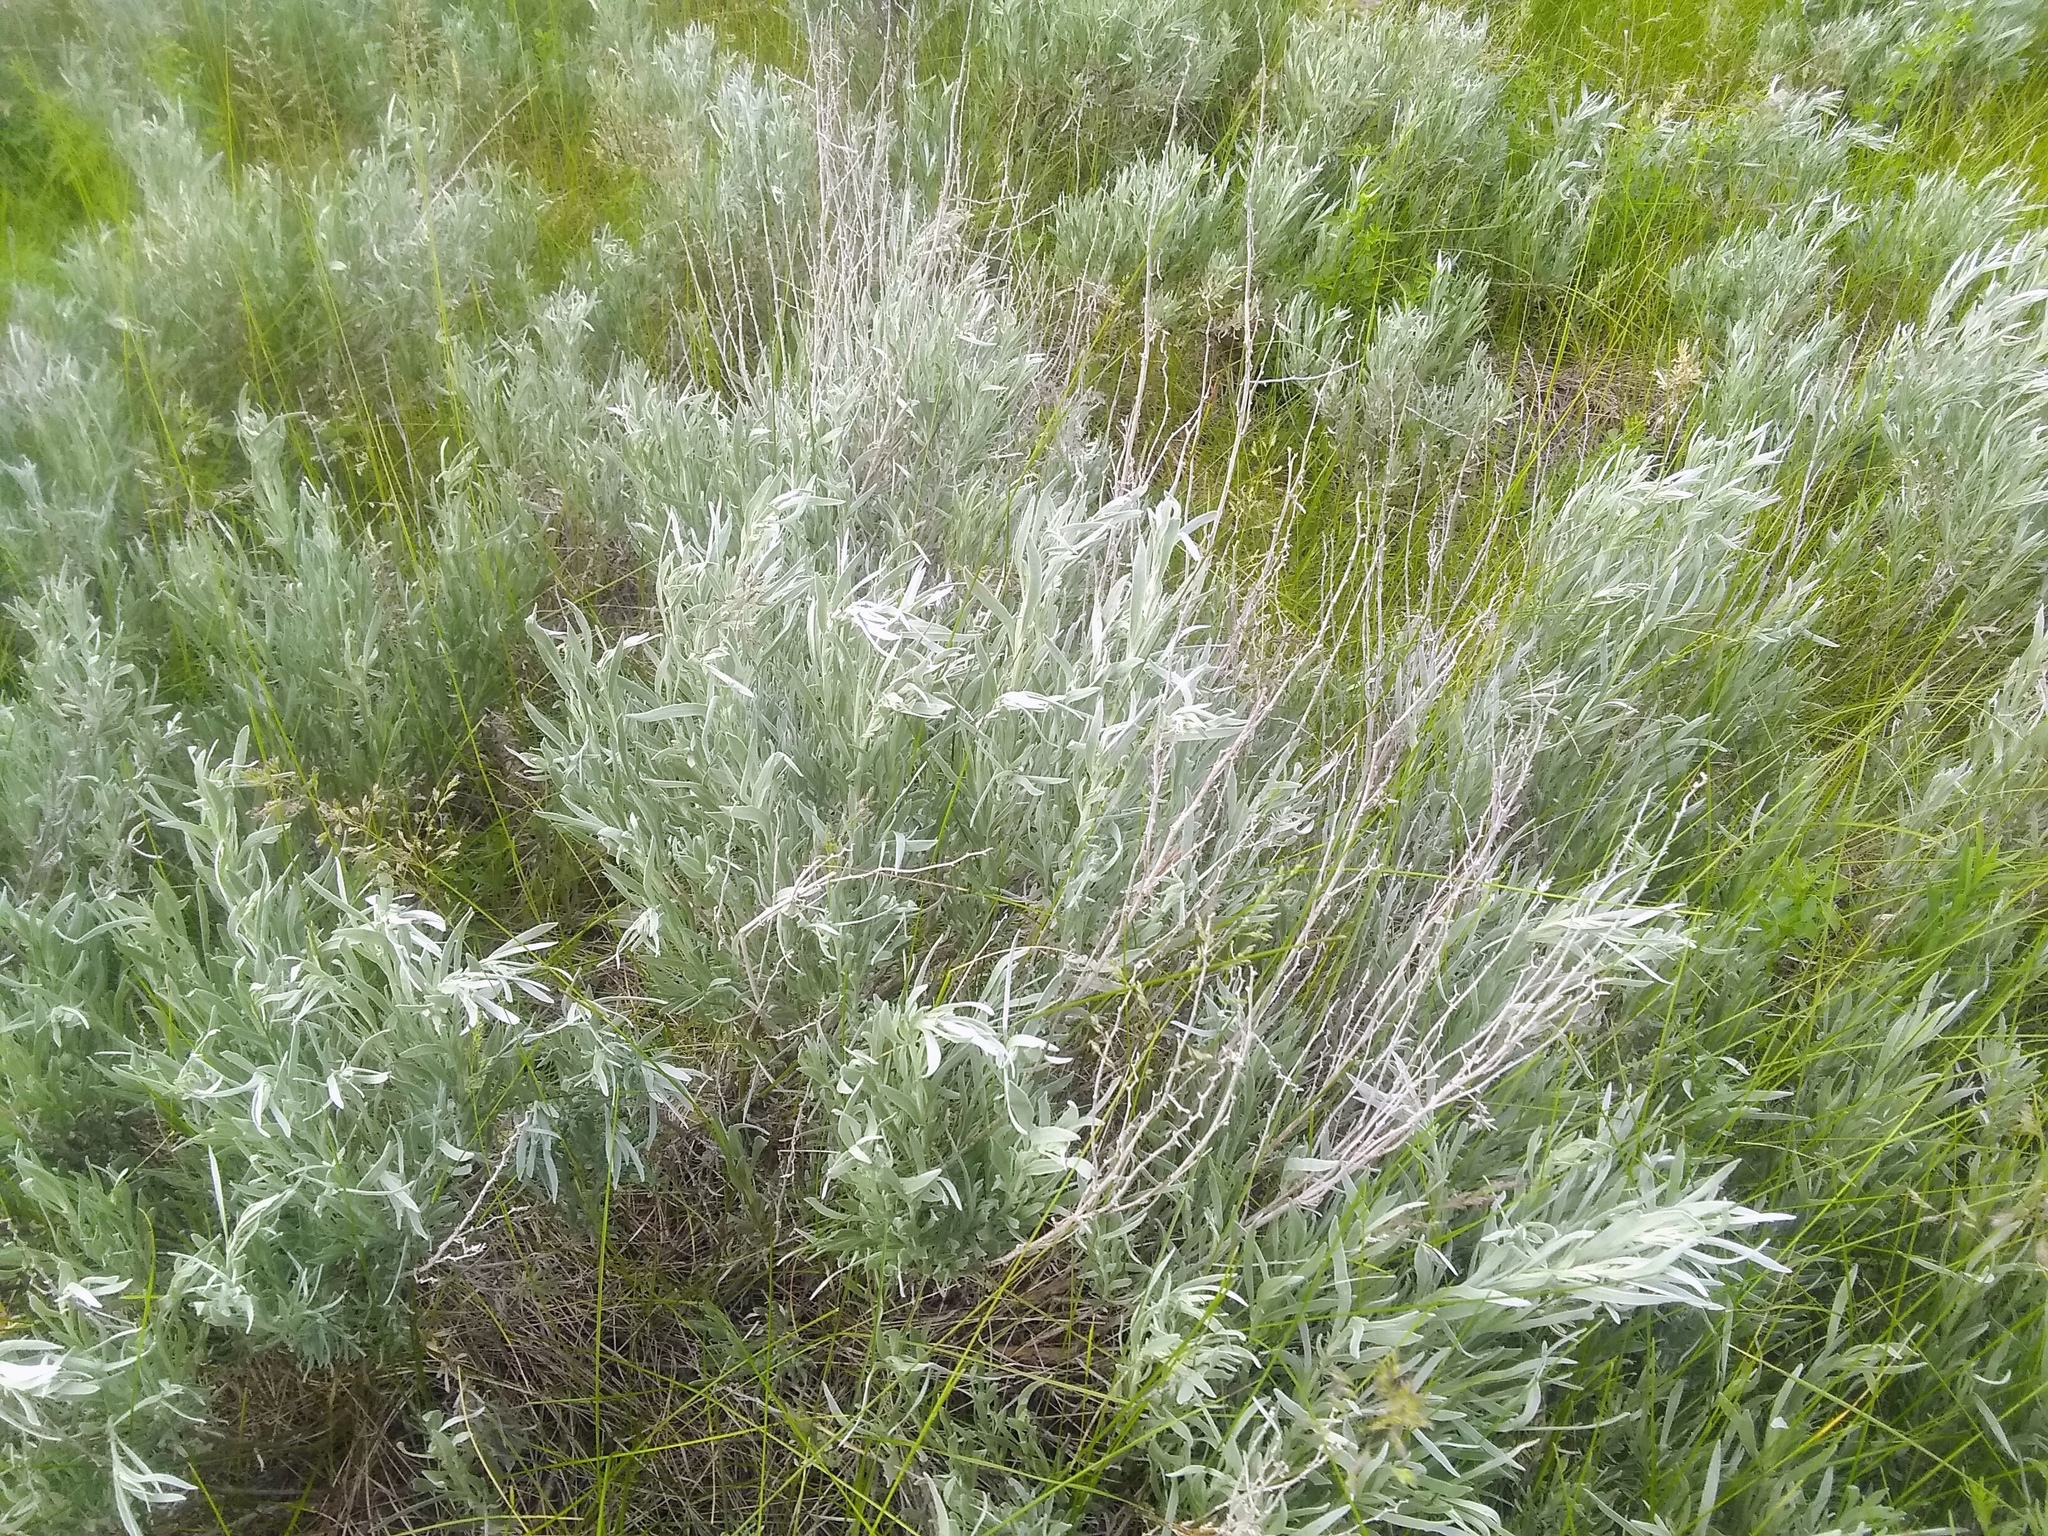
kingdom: Plantae
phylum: Tracheophyta
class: Magnoliopsida
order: Asterales
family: Asteraceae
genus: Artemisia
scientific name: Artemisia cana
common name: Silver sagebrush
